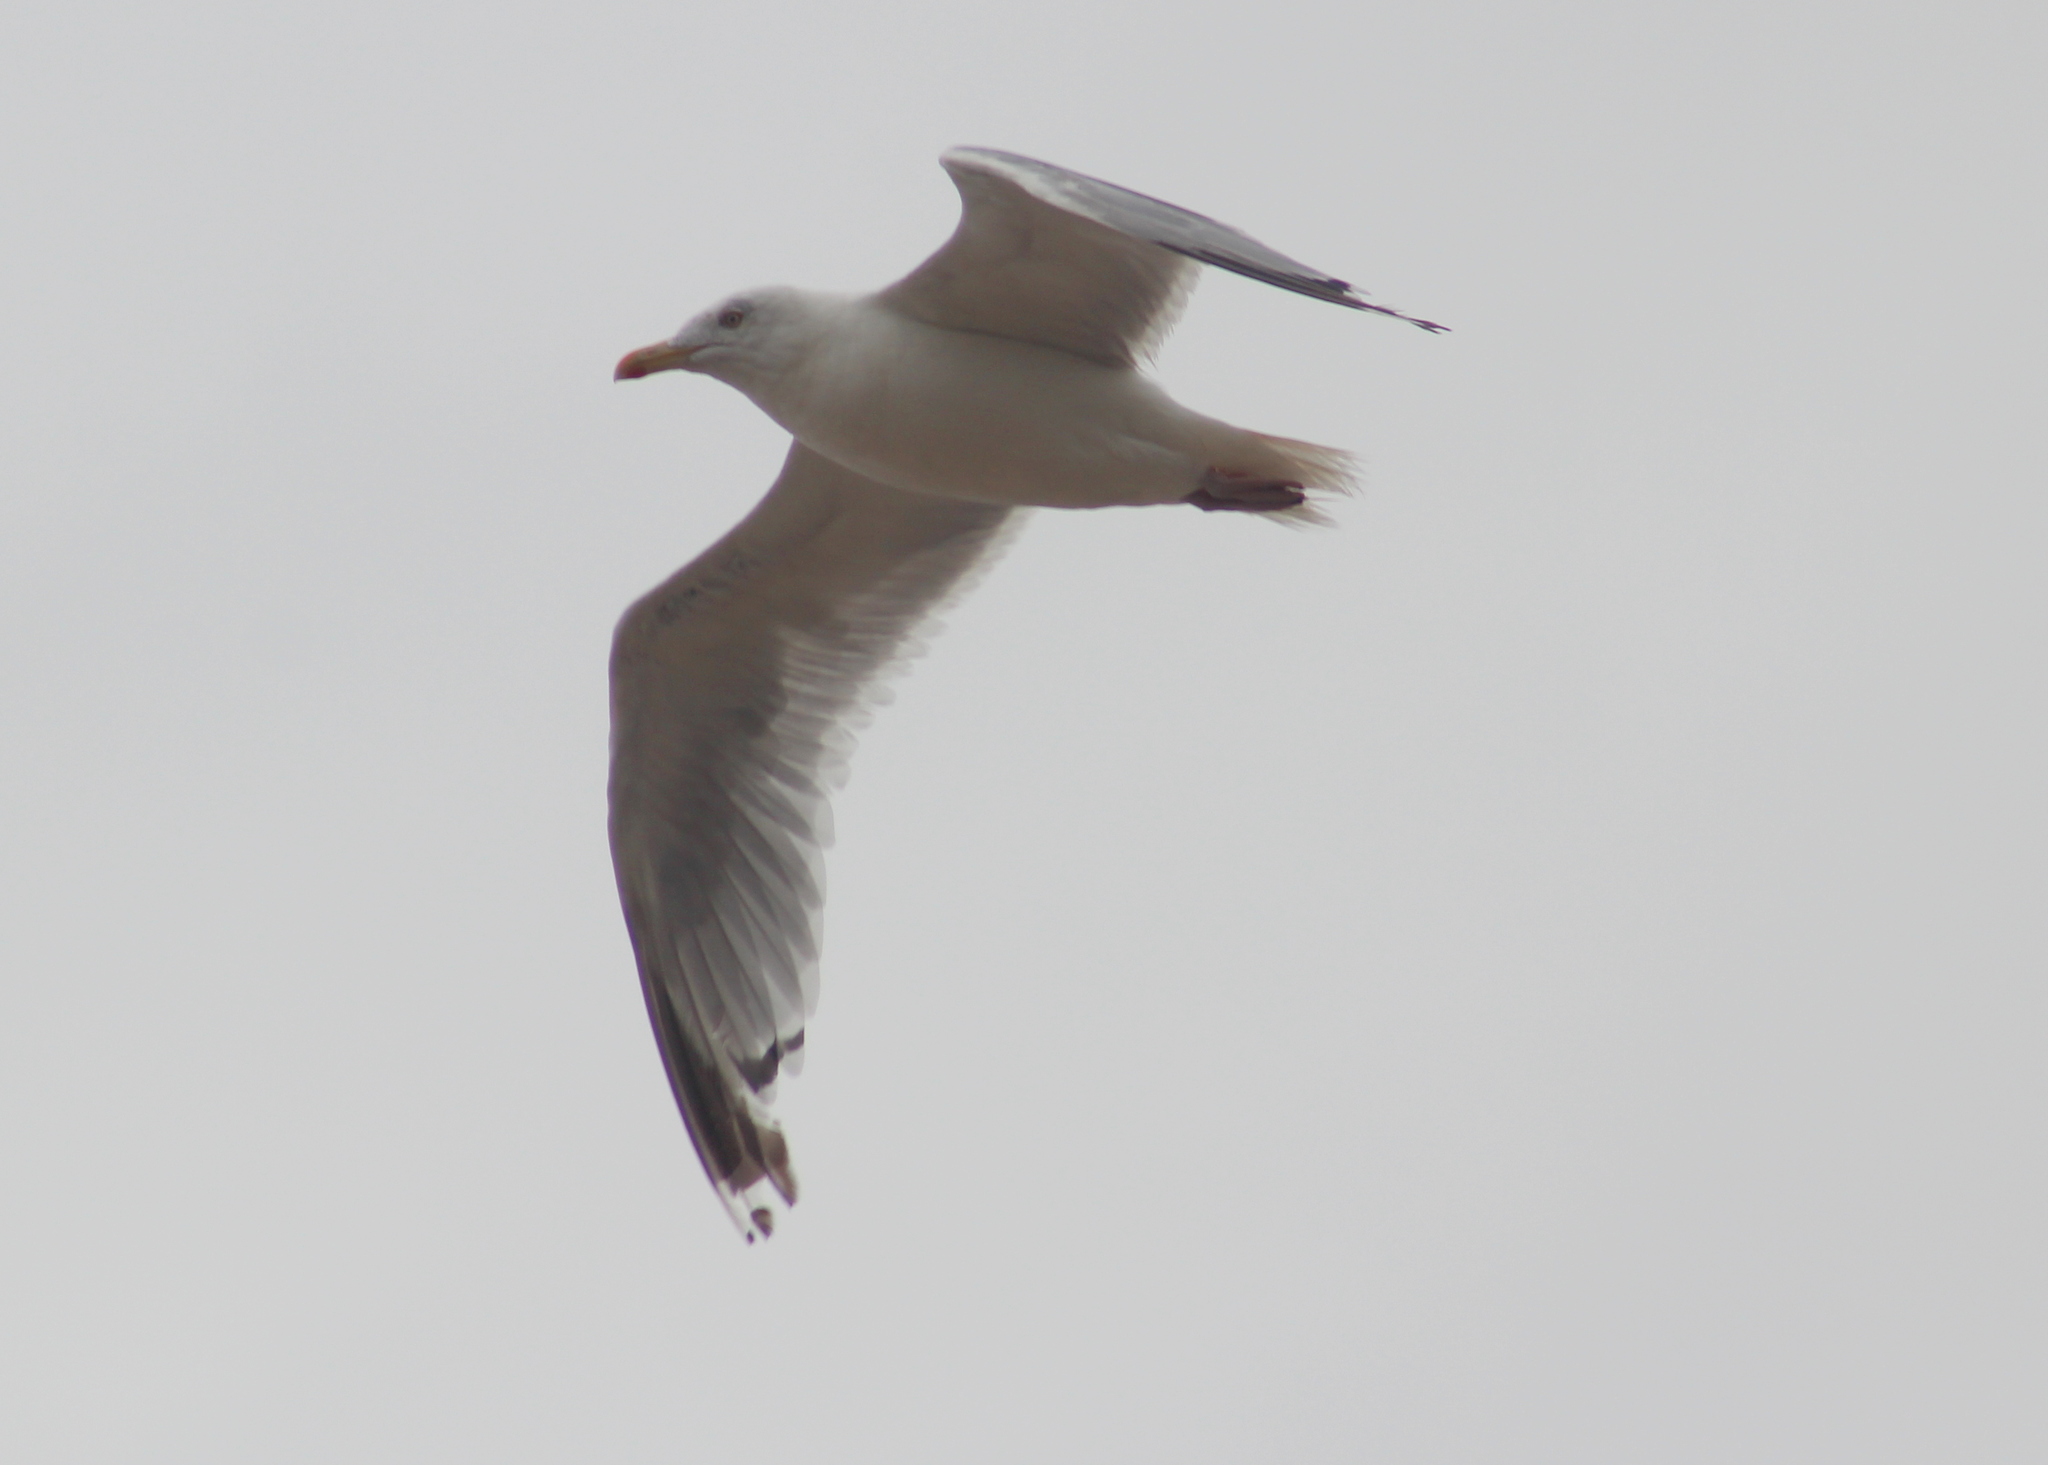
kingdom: Animalia
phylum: Chordata
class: Aves
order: Charadriiformes
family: Laridae
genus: Larus
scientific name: Larus argentatus
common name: Herring gull
